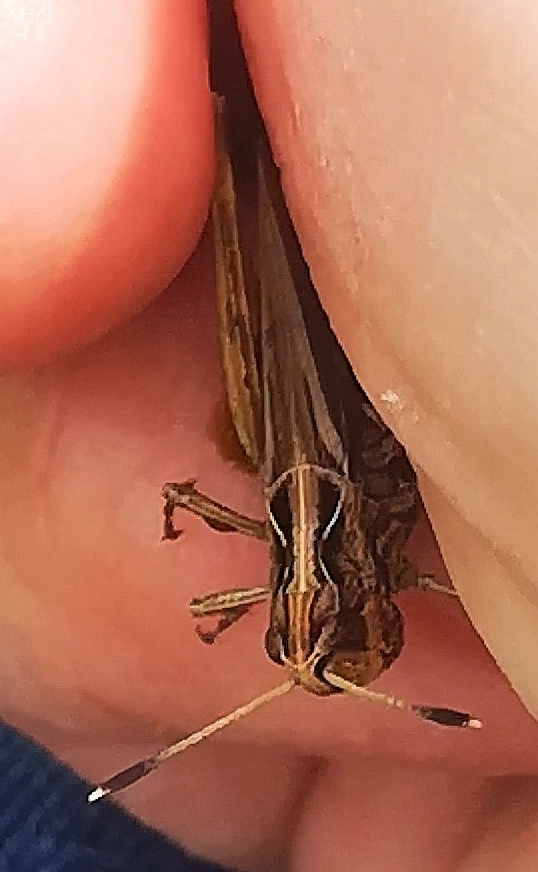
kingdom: Animalia
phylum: Arthropoda
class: Insecta
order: Orthoptera
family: Acrididae
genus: Gomphocerippus
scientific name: Gomphocerippus rufus
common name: Rufous grasshopper
